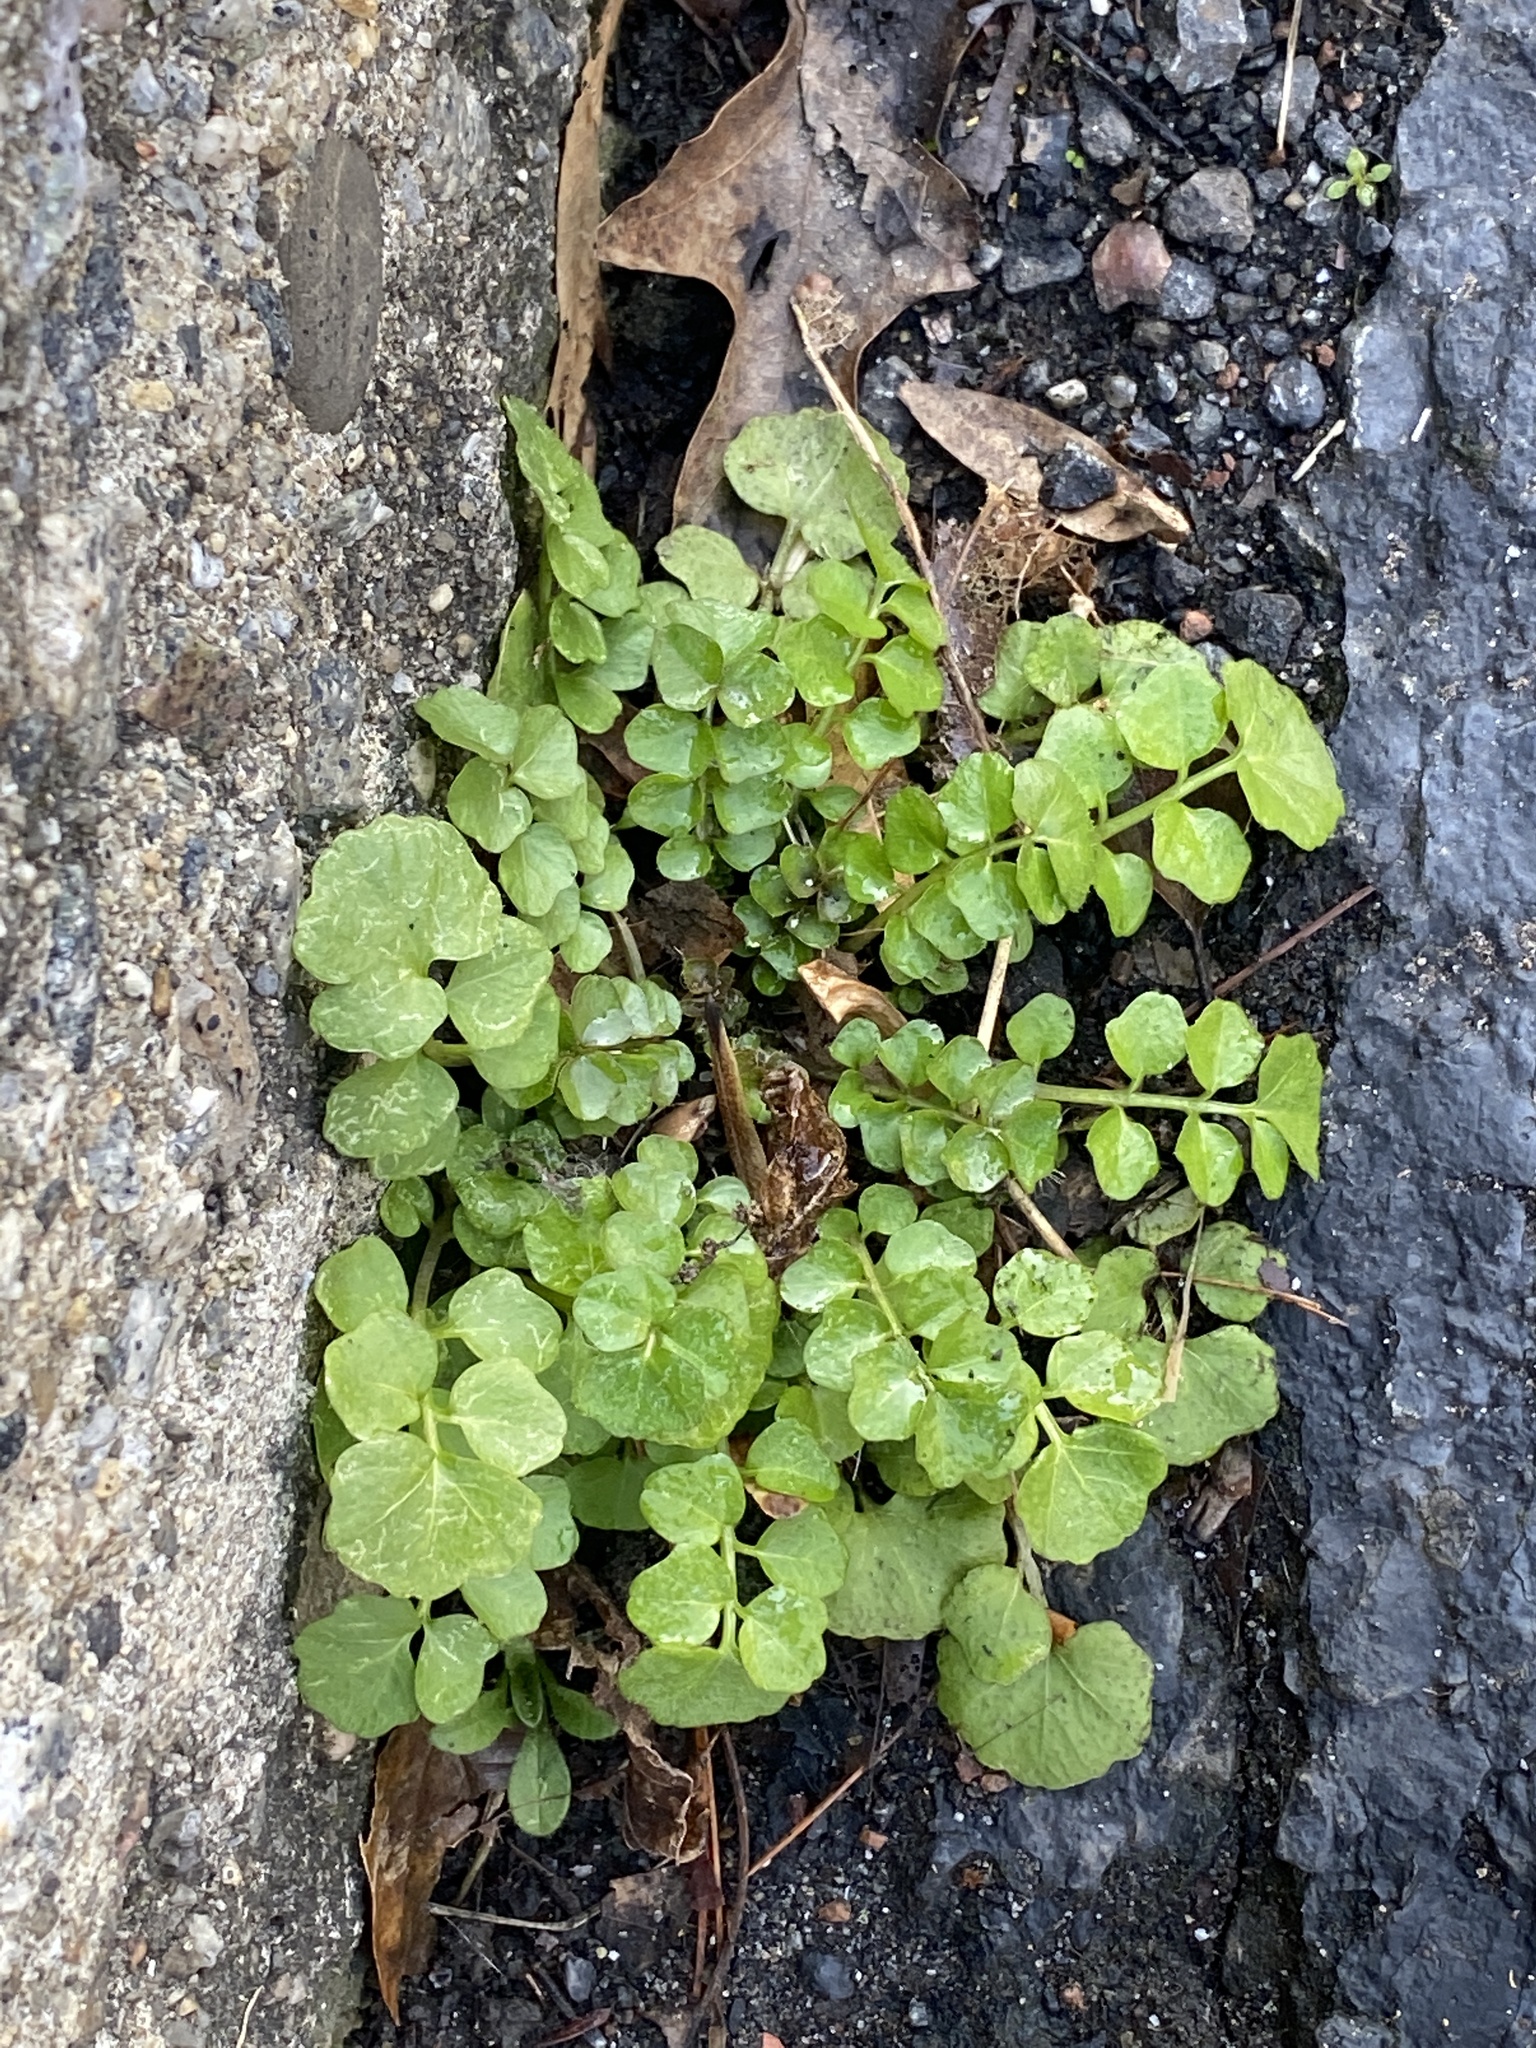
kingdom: Plantae
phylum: Tracheophyta
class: Magnoliopsida
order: Brassicales
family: Brassicaceae
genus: Cardamine
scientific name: Cardamine hirsuta
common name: Hairy bittercress
